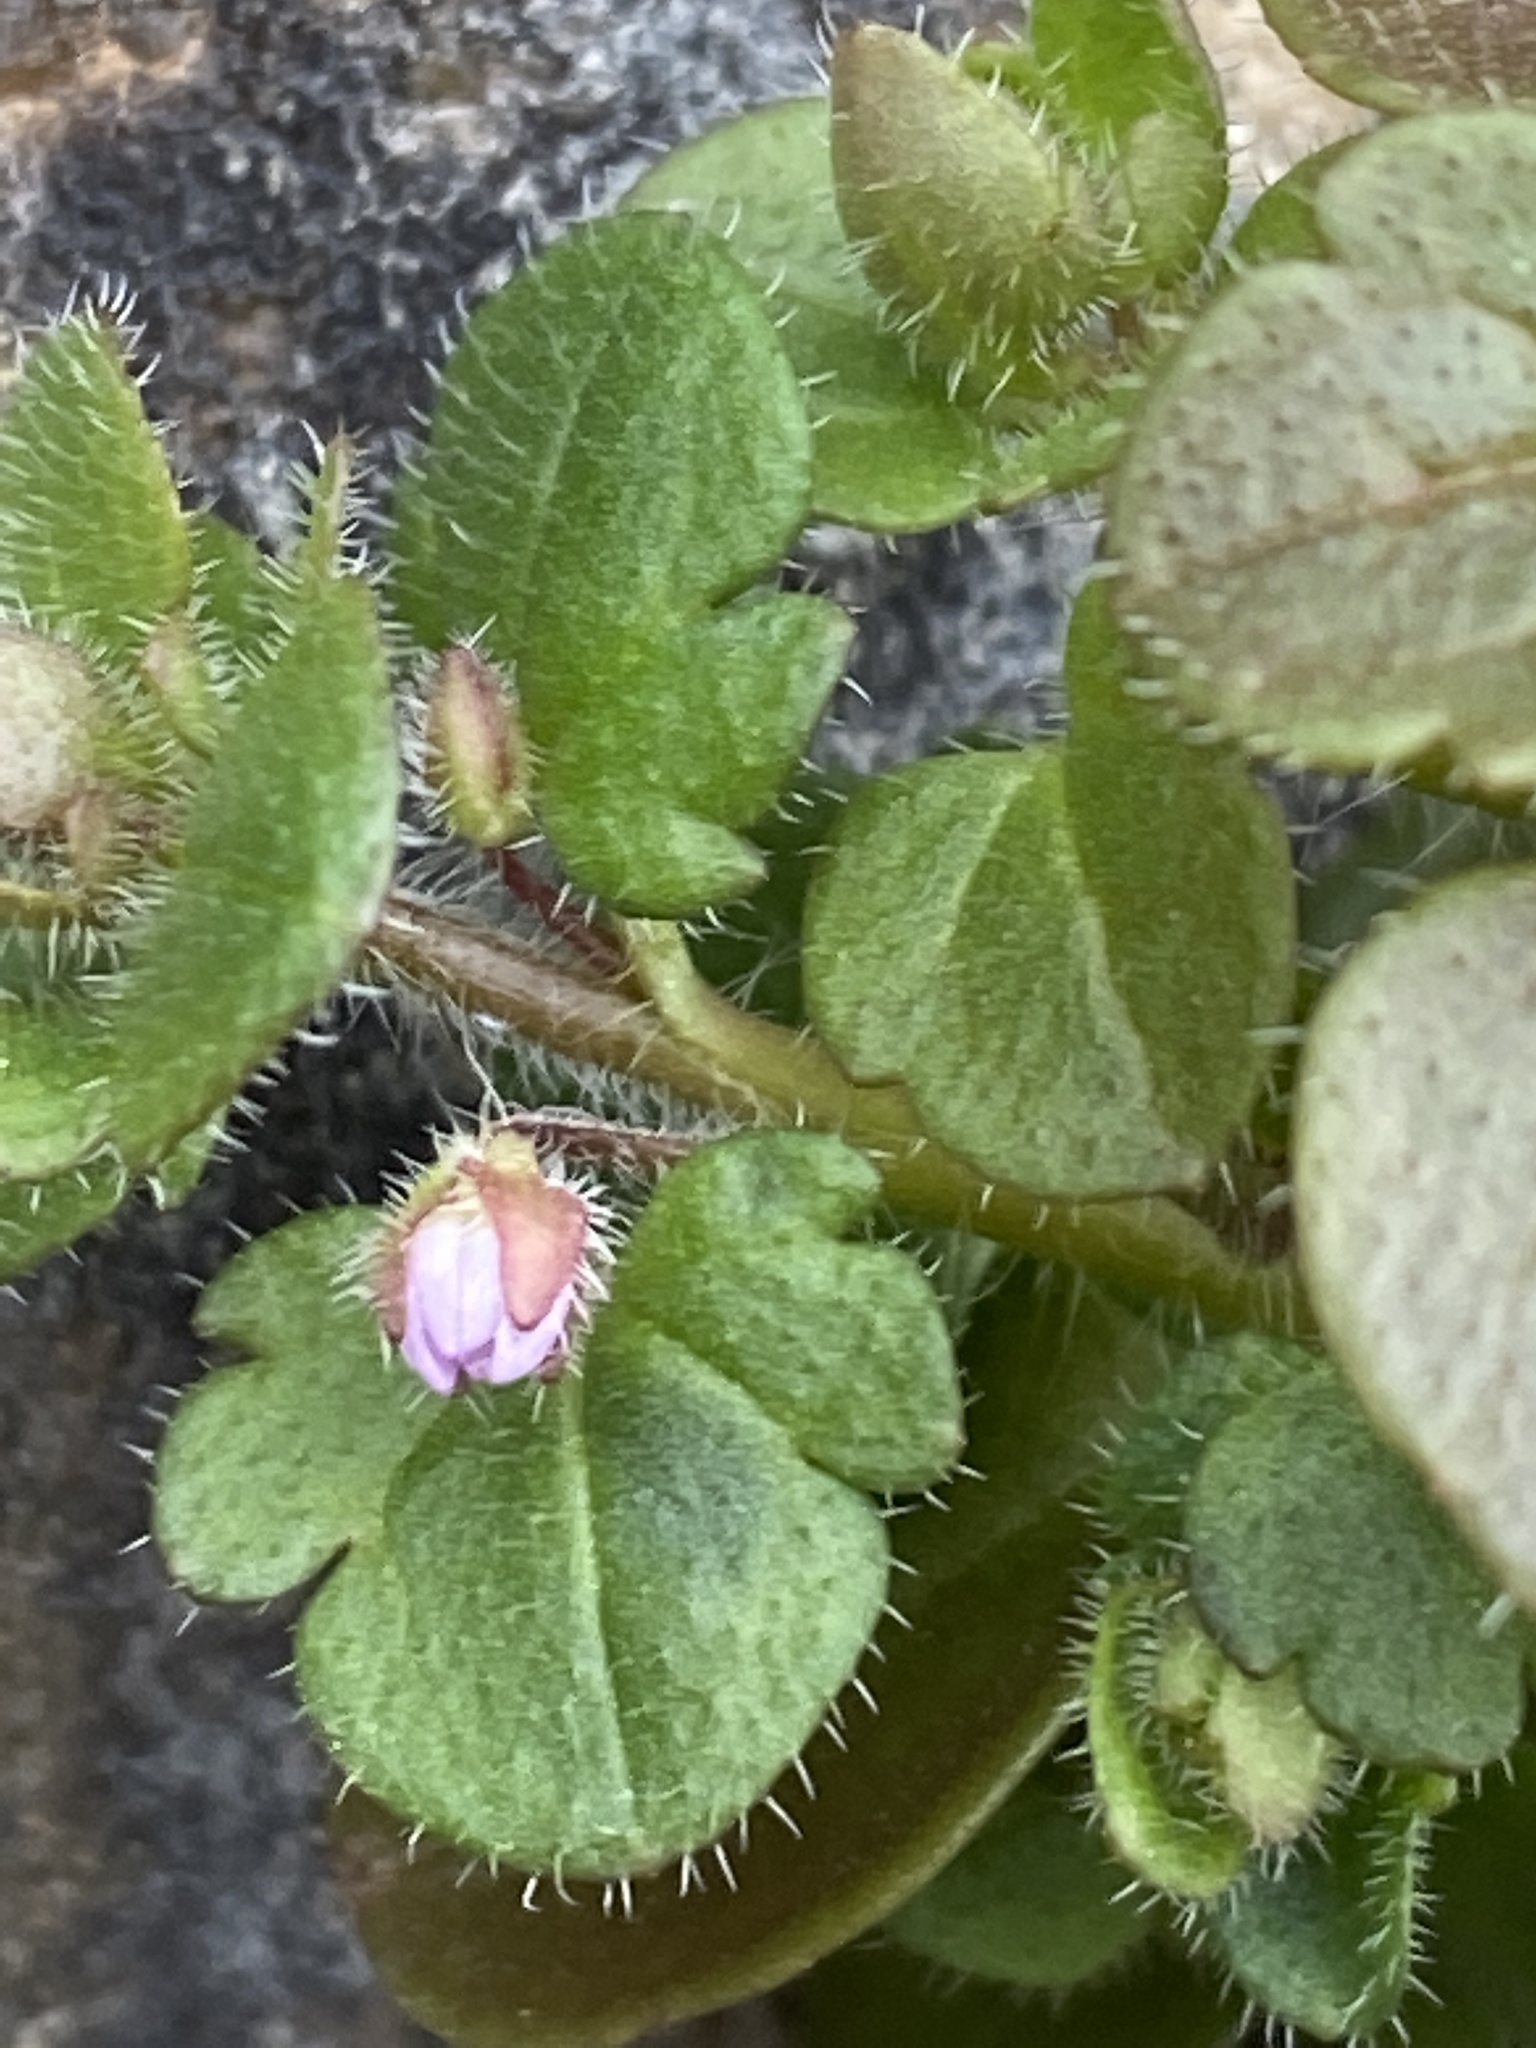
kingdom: Plantae
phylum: Tracheophyta
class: Magnoliopsida
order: Lamiales
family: Plantaginaceae
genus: Veronica
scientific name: Veronica sublobata
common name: False ivy-leaved speedwell
